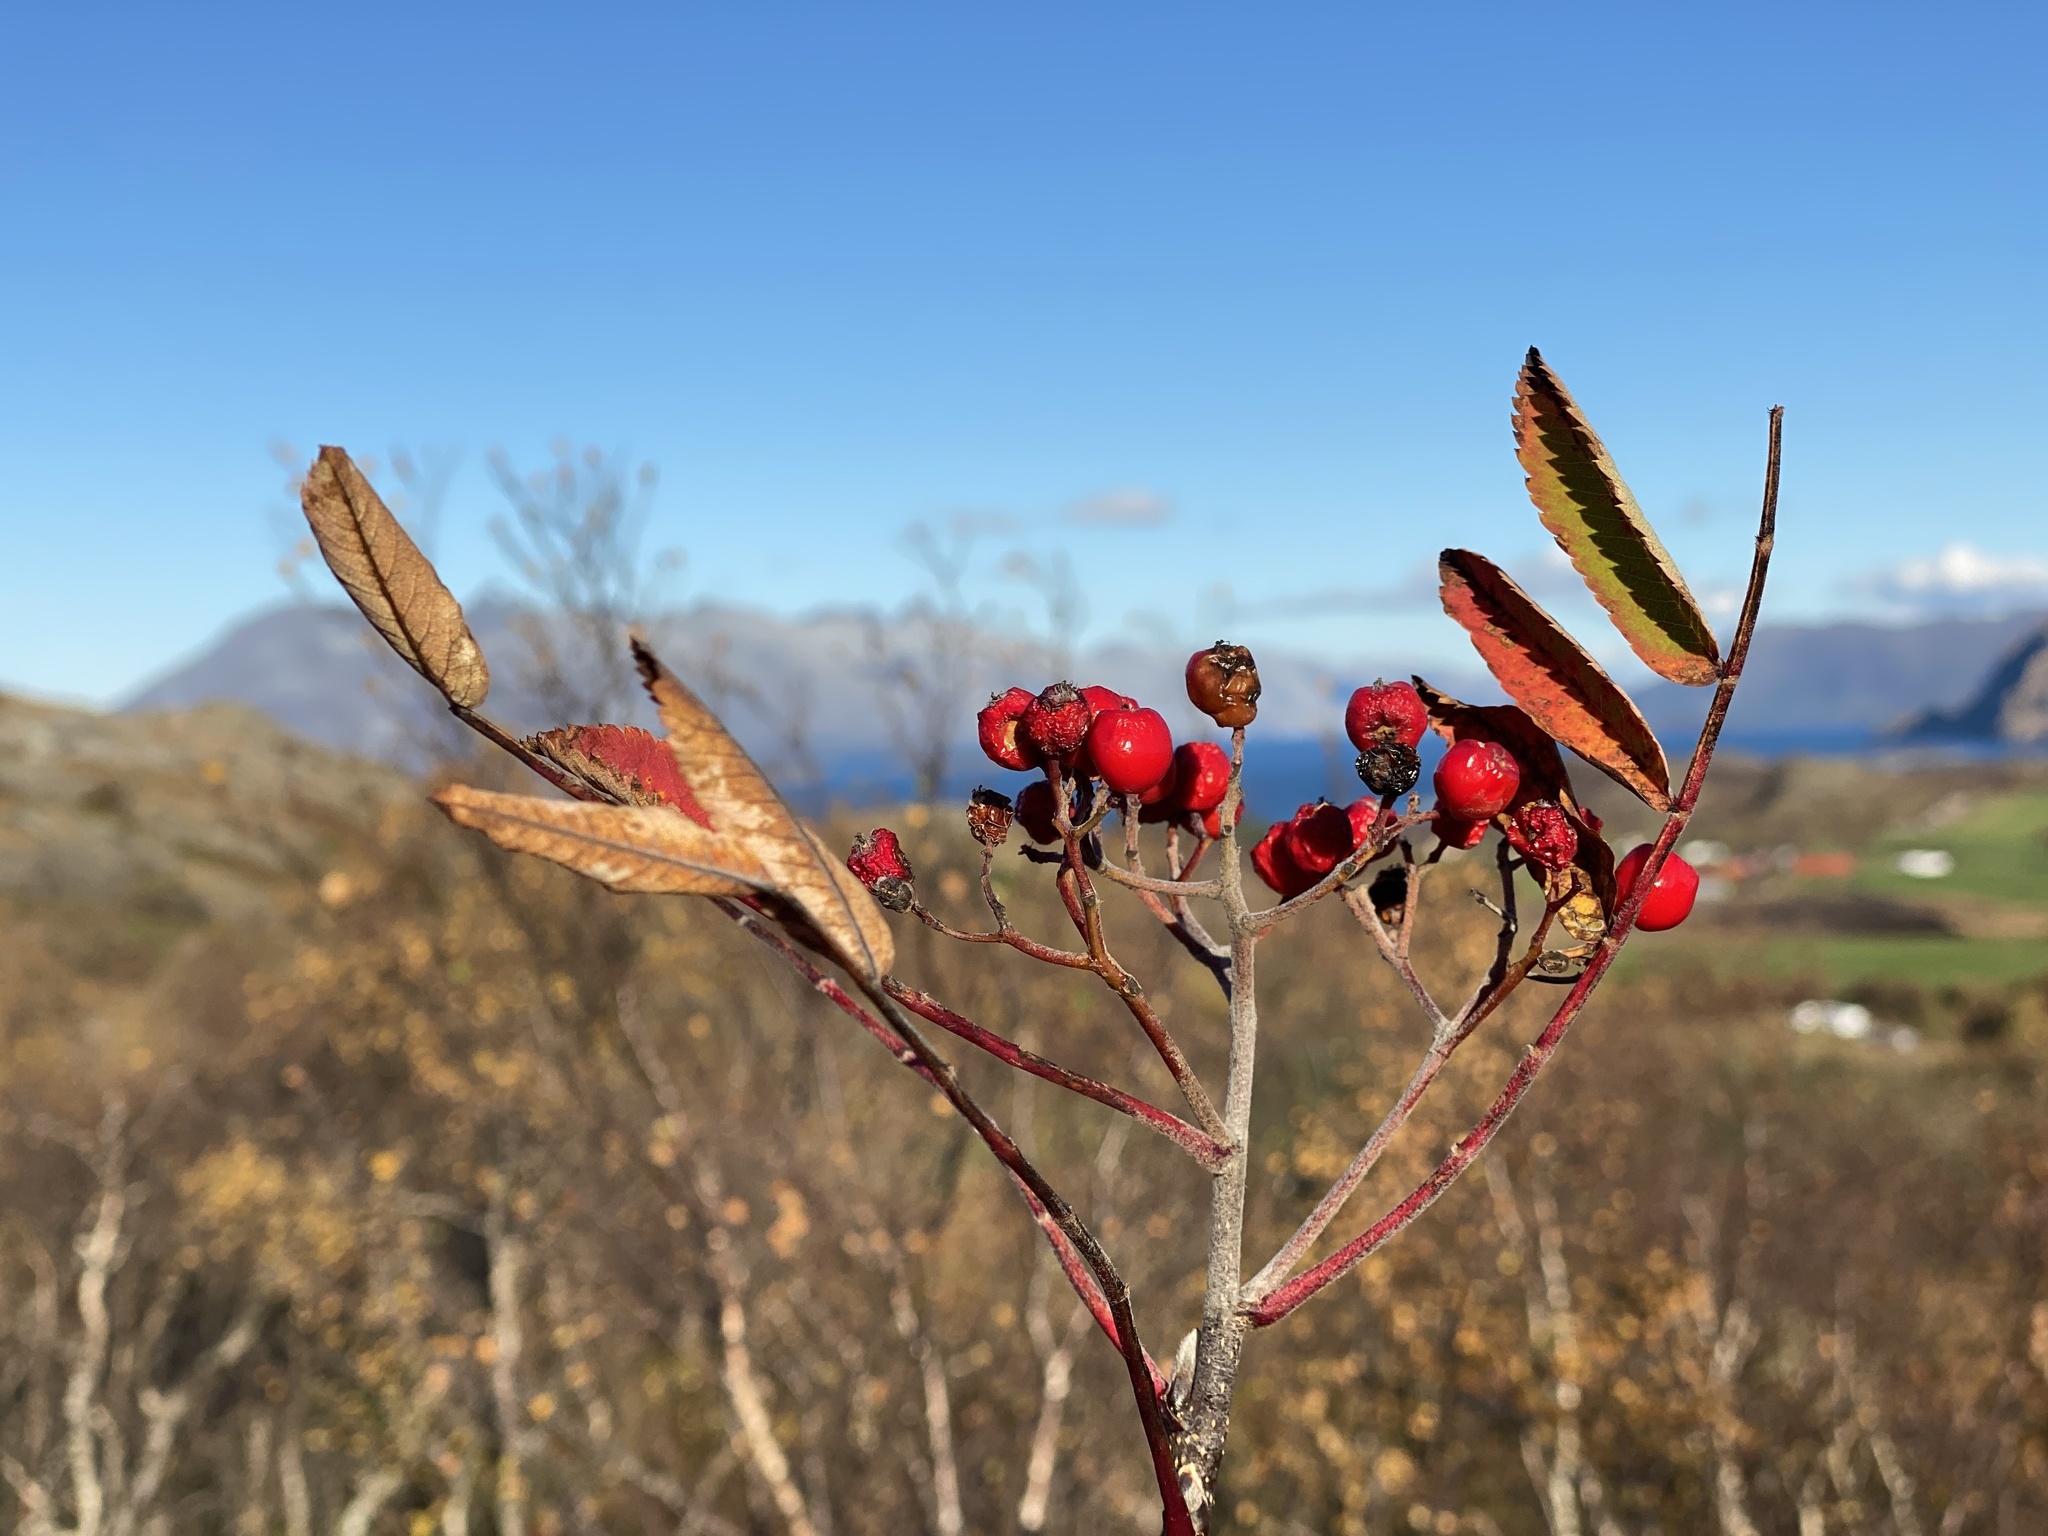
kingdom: Plantae
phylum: Tracheophyta
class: Magnoliopsida
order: Rosales
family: Rosaceae
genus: Sorbus
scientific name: Sorbus aucuparia
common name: Rowan
